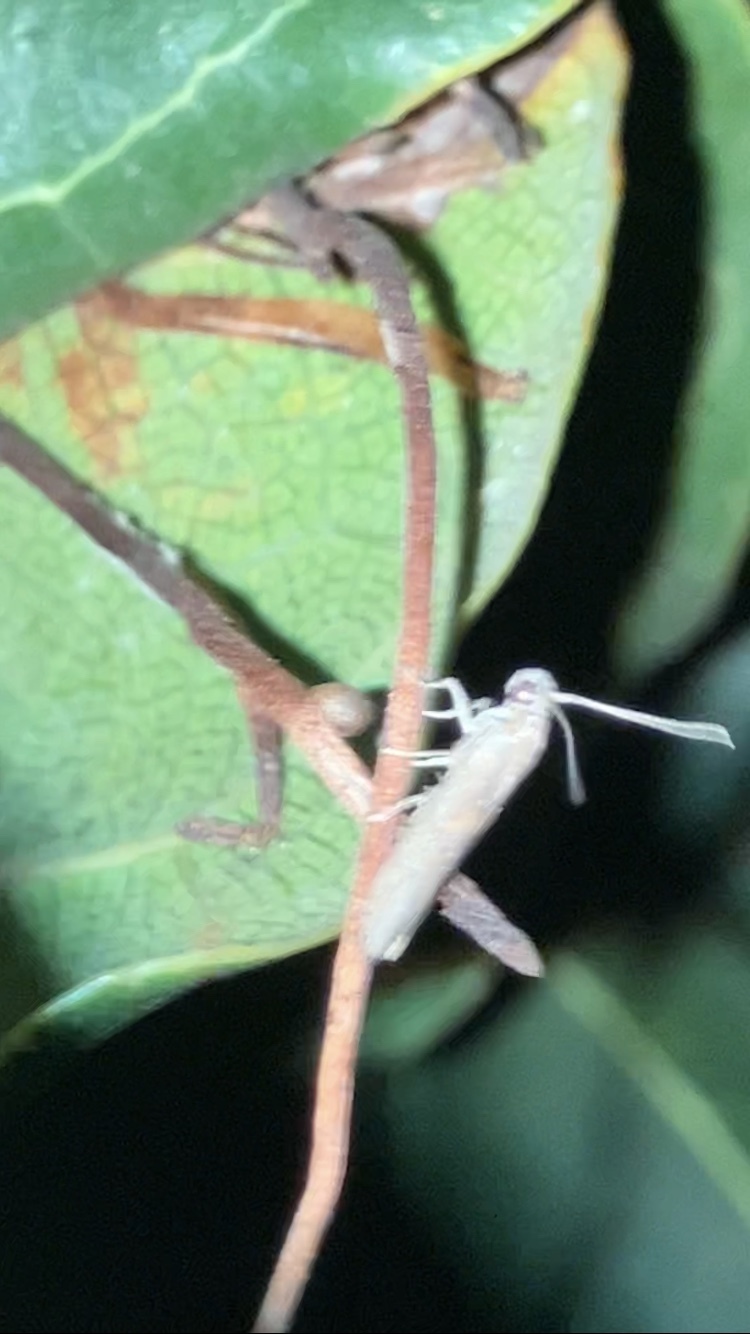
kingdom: Animalia
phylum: Arthropoda
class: Insecta
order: Lepidoptera
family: Pyralidae
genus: Phycitinae
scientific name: Phycitinae
